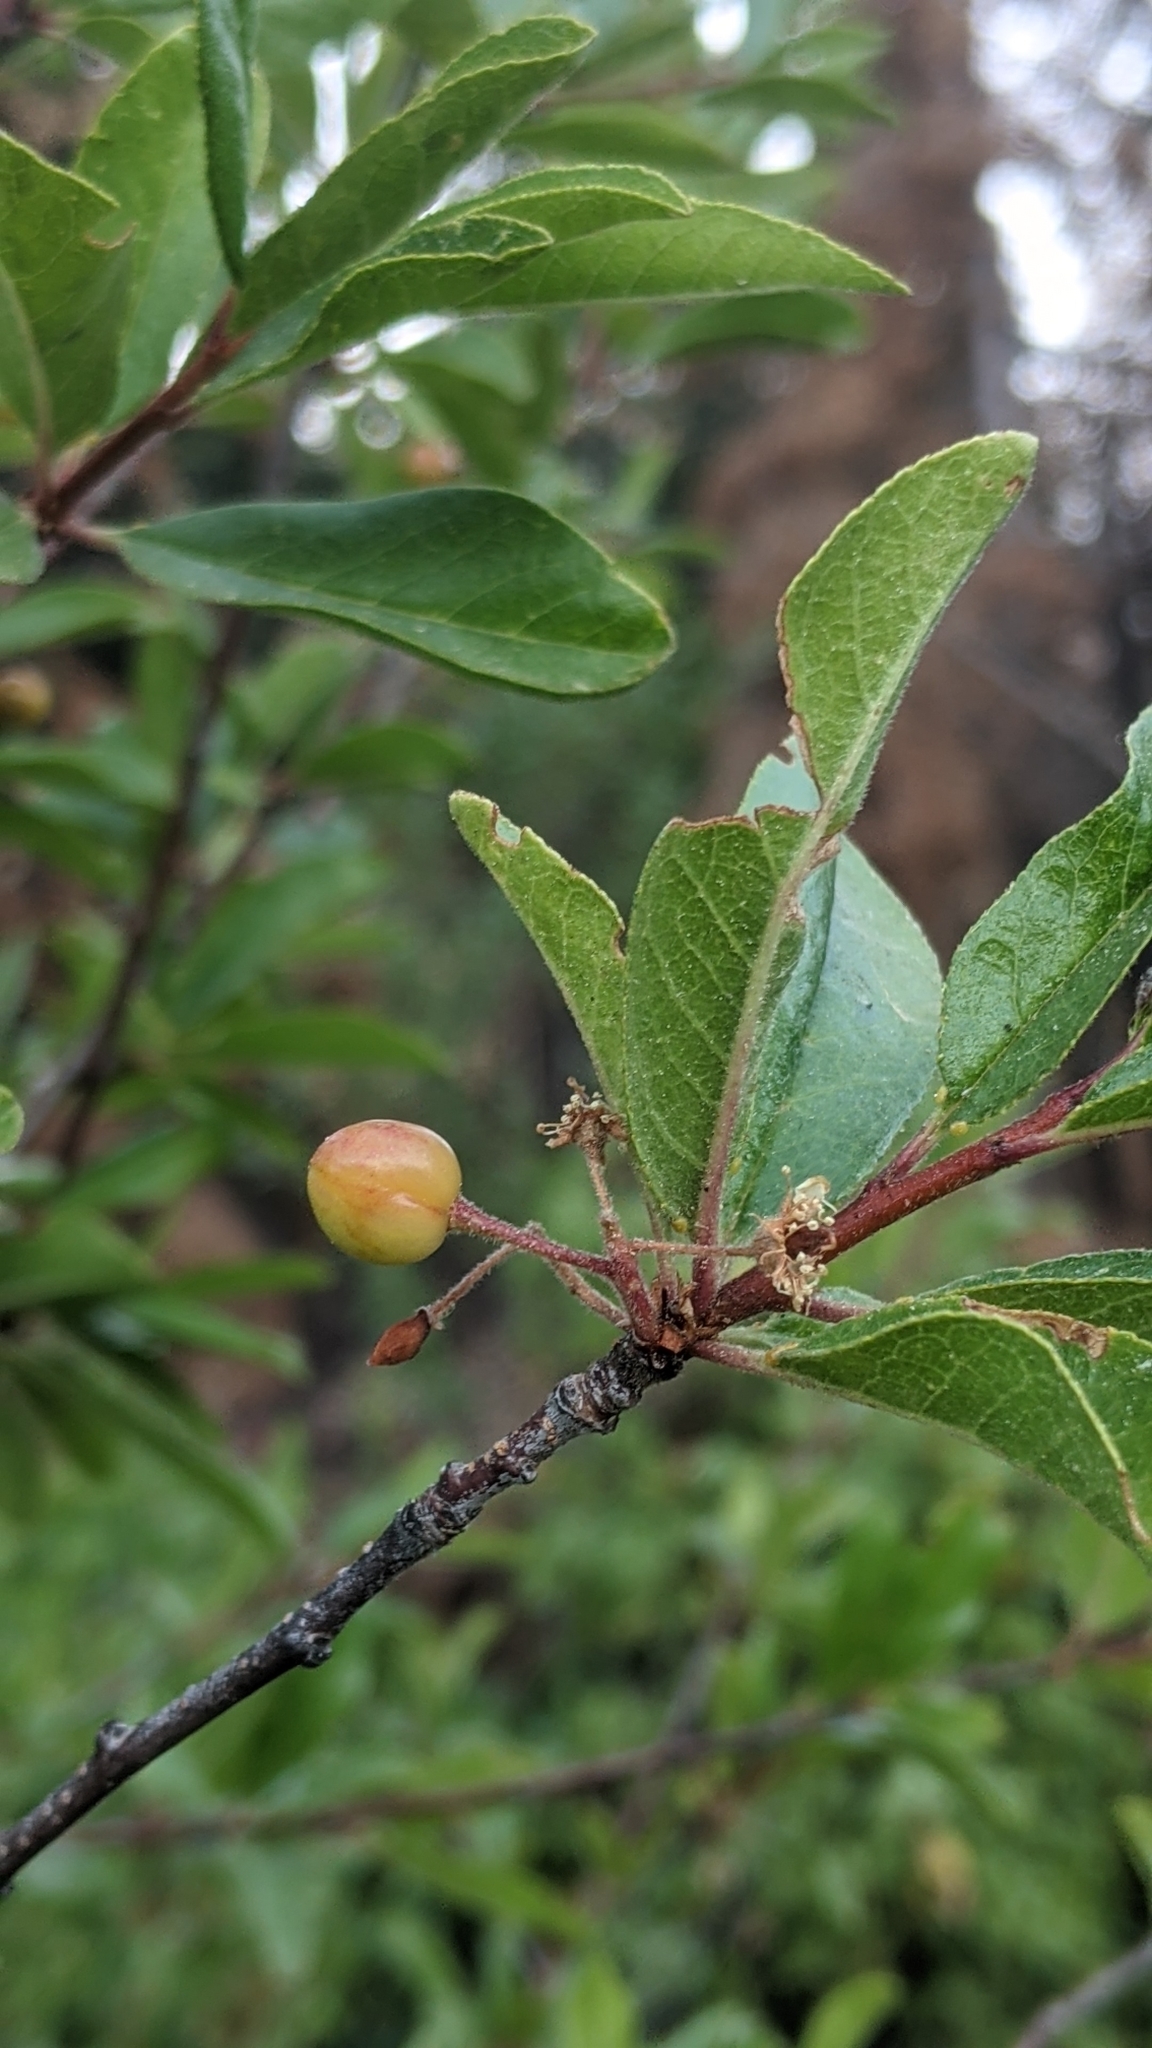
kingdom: Plantae
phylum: Tracheophyta
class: Magnoliopsida
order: Rosales
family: Rosaceae
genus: Prunus
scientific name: Prunus emarginata
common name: Bitter cherry
